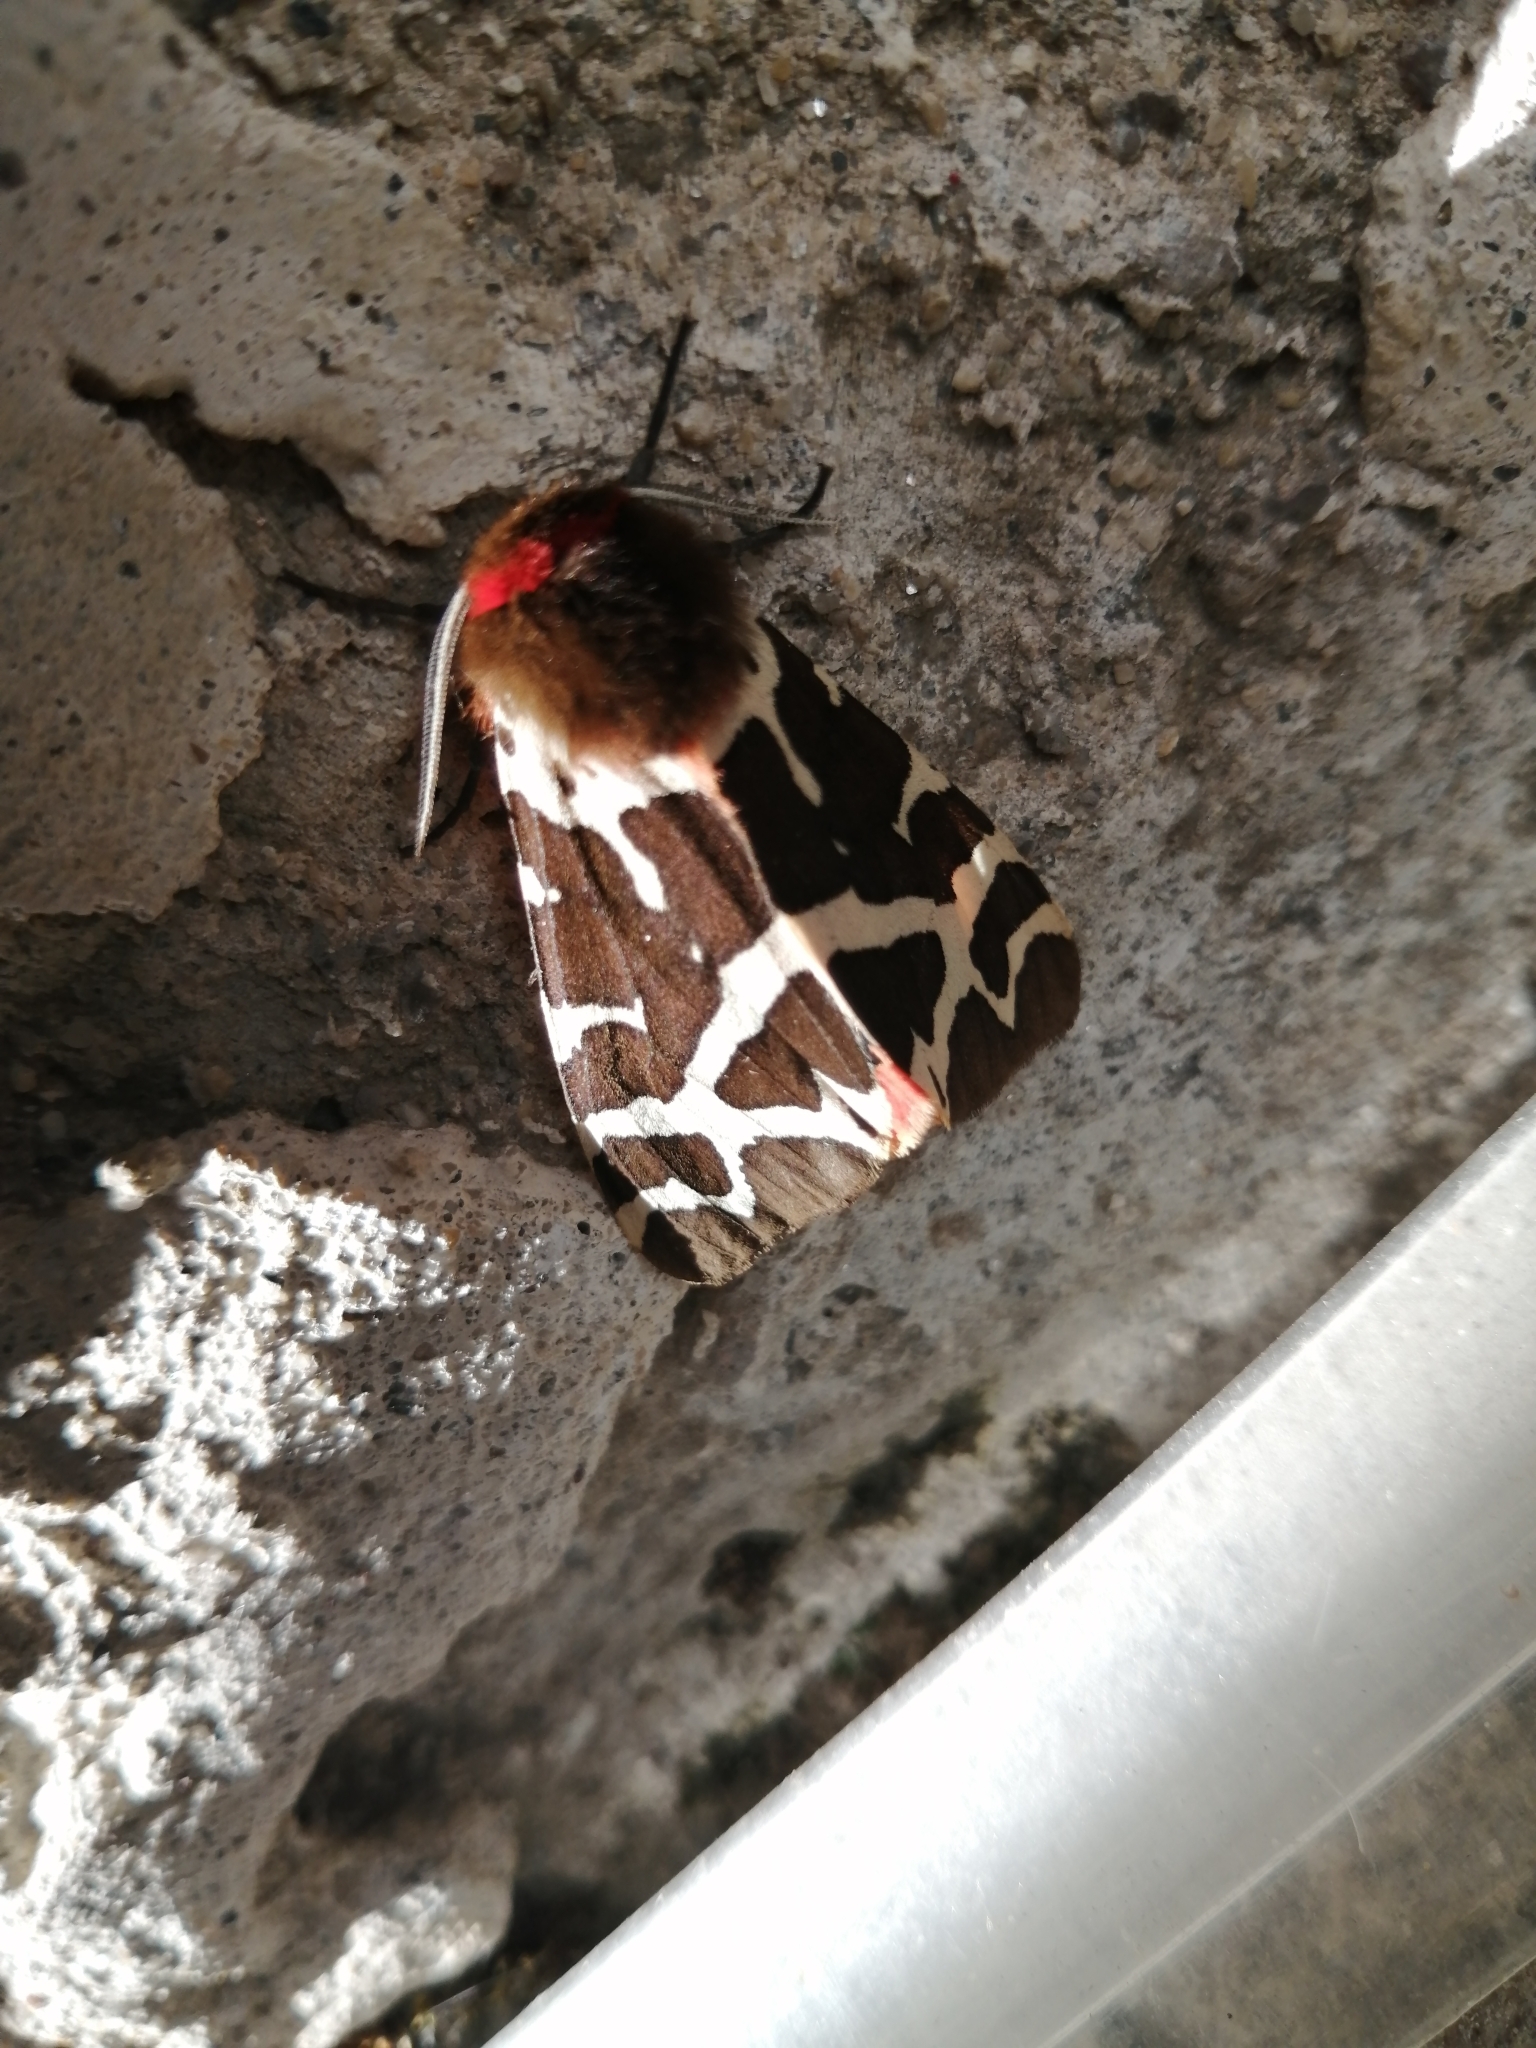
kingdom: Animalia
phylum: Arthropoda
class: Insecta
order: Lepidoptera
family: Erebidae
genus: Arctia
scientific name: Arctia caja
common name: Garden tiger
